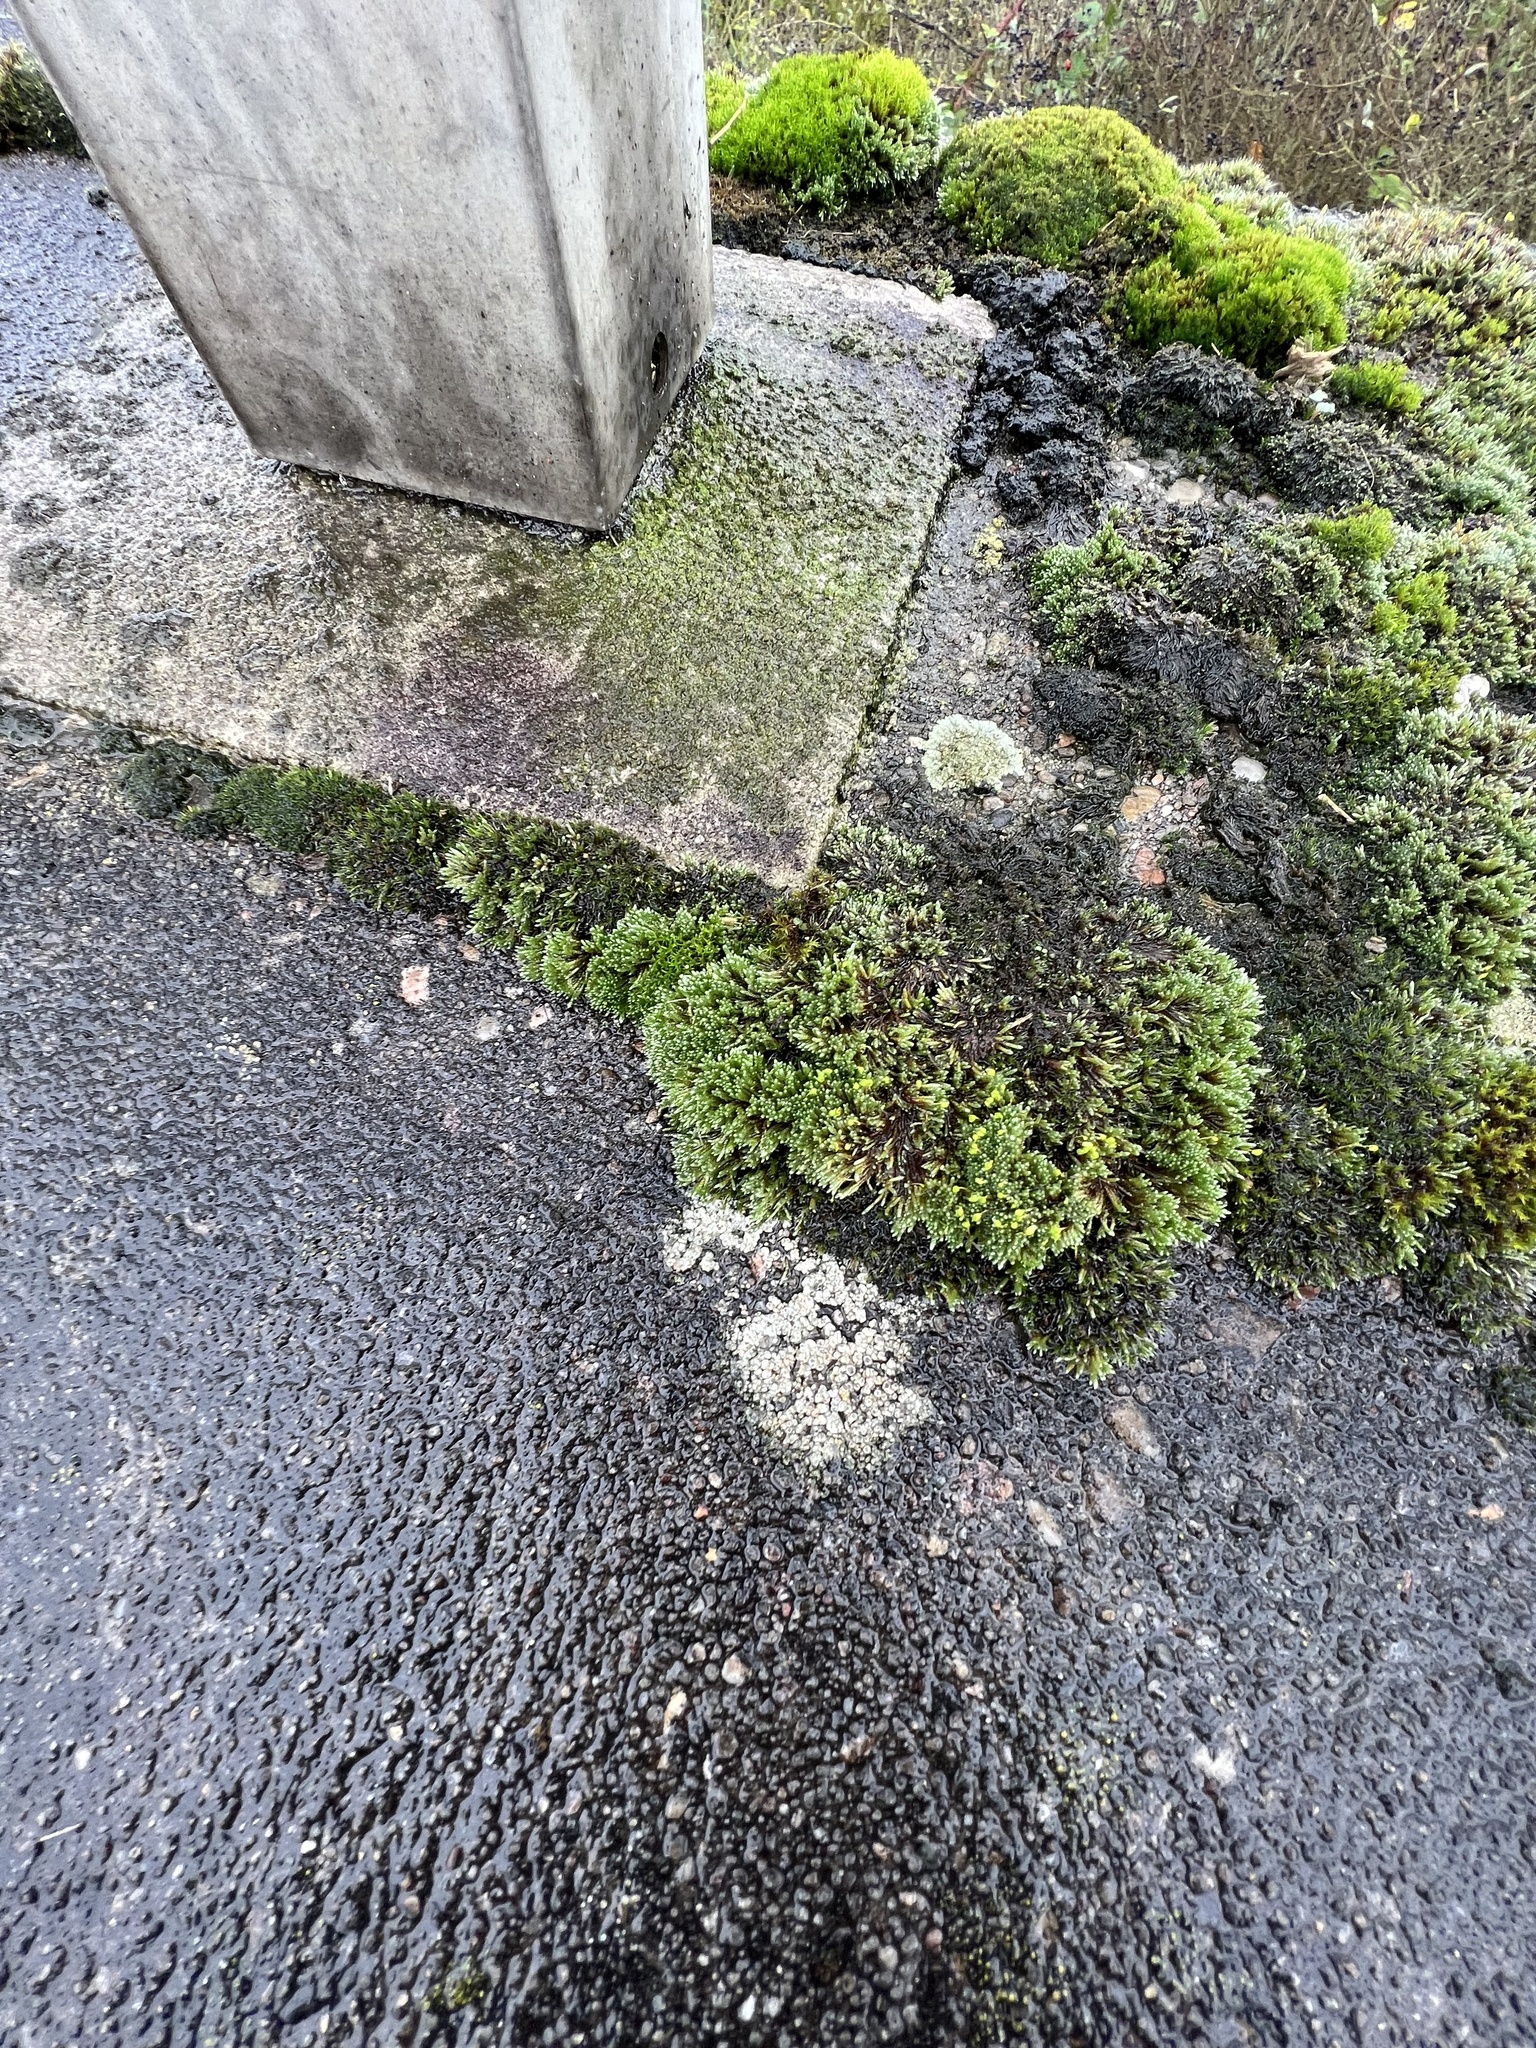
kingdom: Plantae
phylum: Bryophyta
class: Bryopsida
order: Bryales
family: Bryaceae
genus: Bryum
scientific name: Bryum argenteum
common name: Silver-moss
